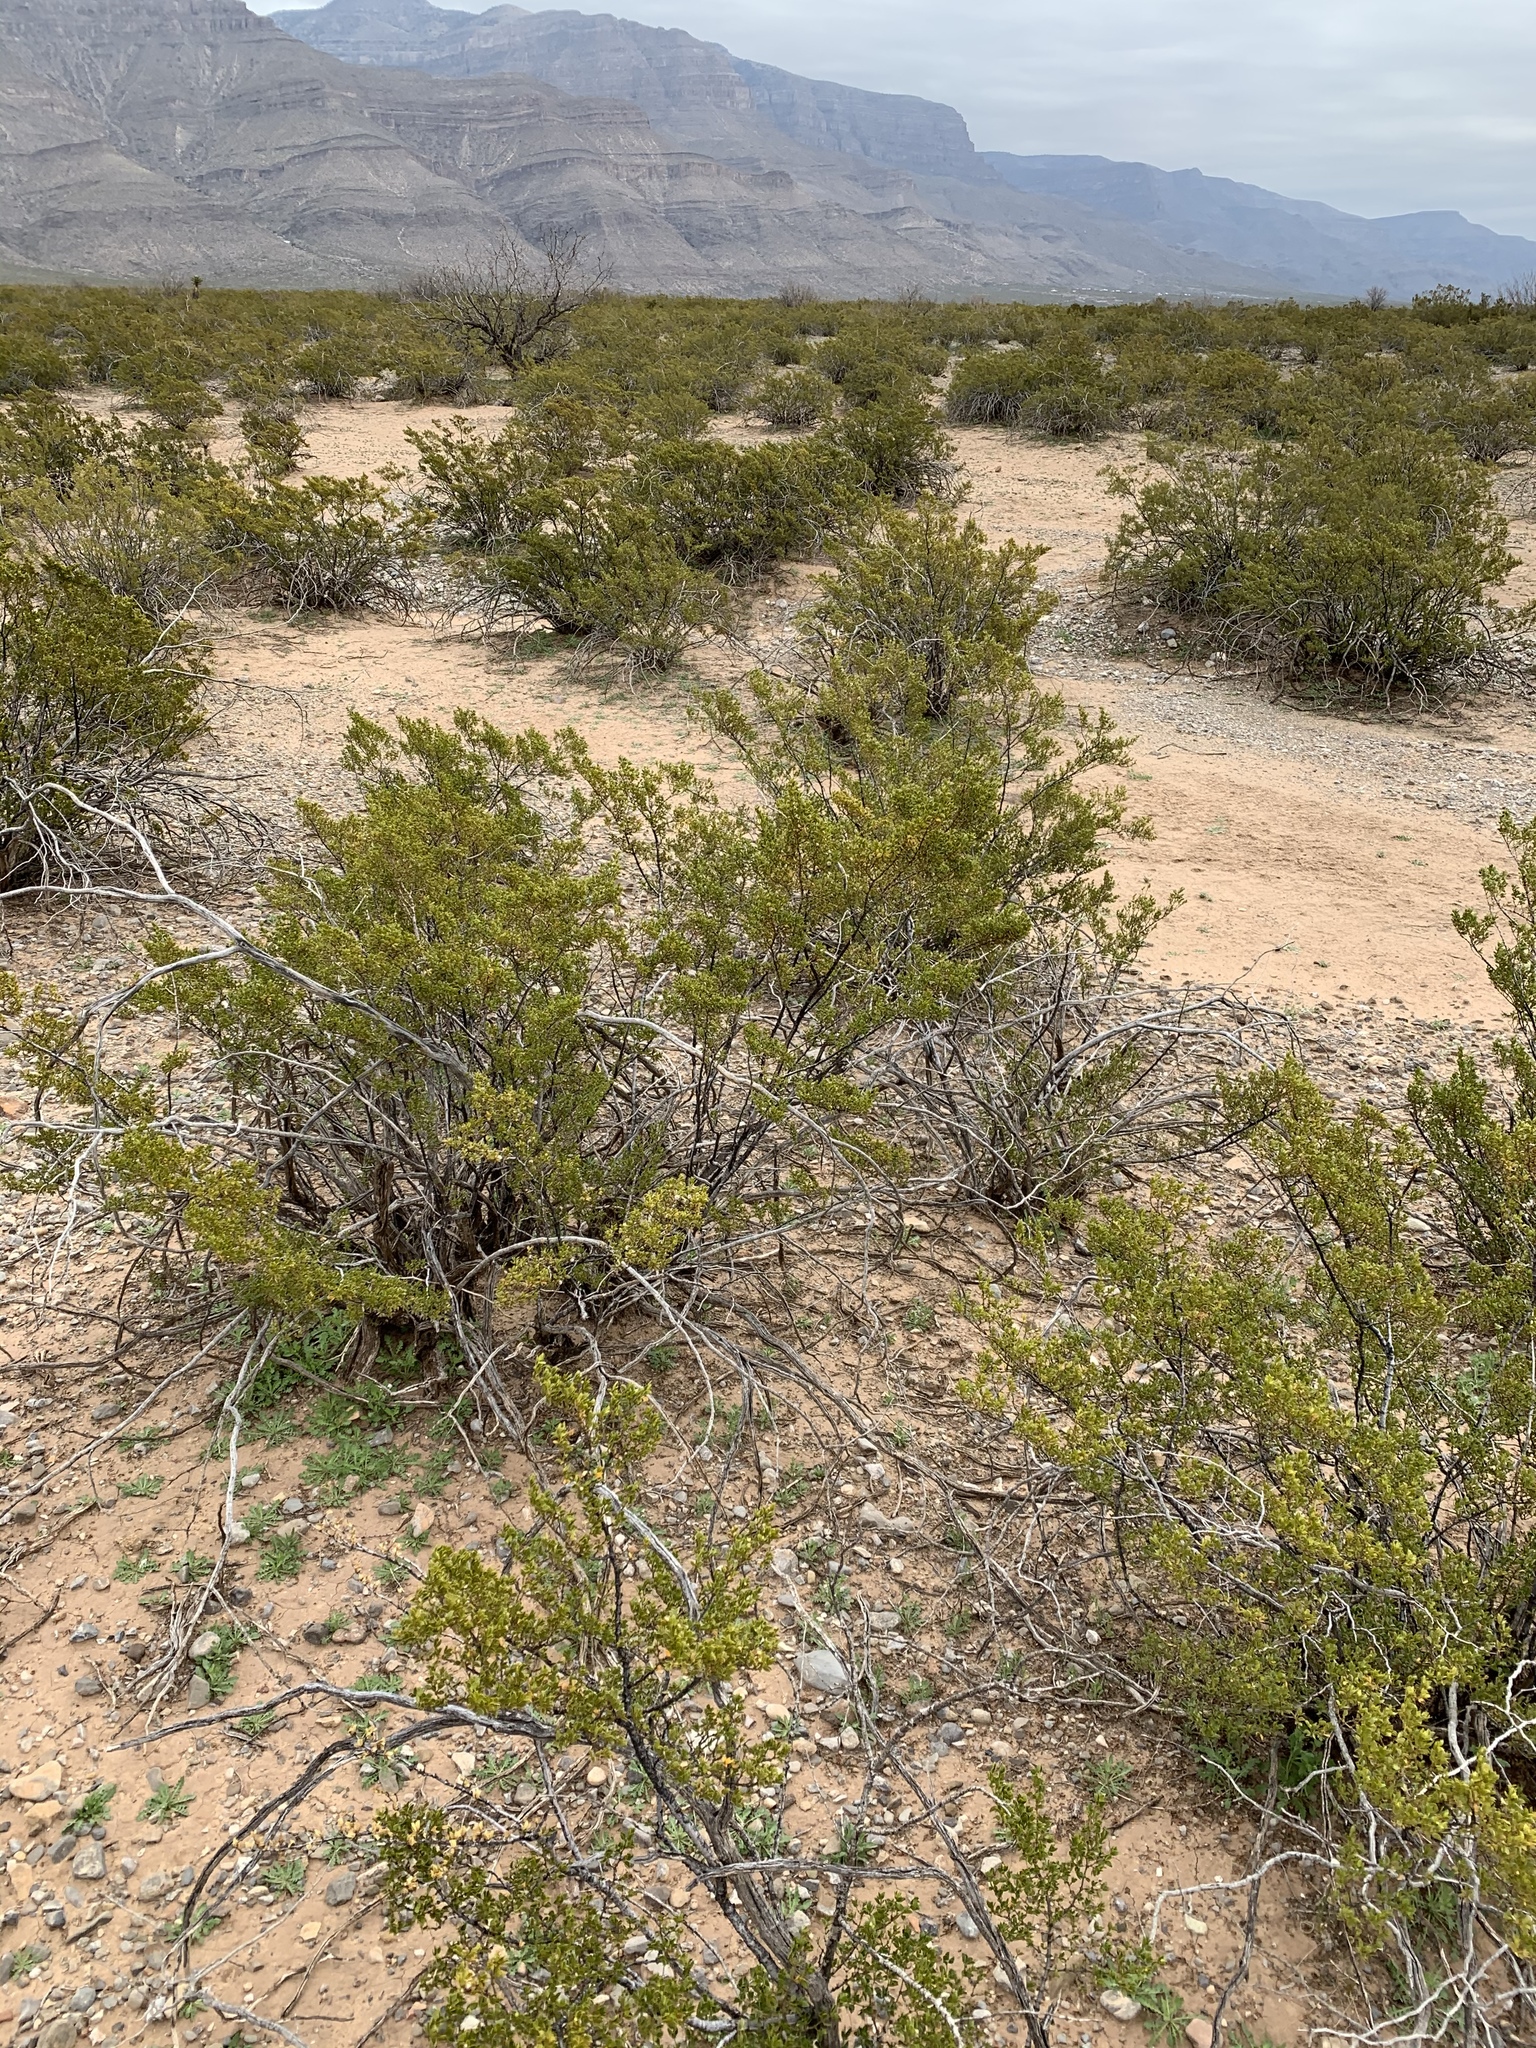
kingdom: Plantae
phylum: Tracheophyta
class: Magnoliopsida
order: Zygophyllales
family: Zygophyllaceae
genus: Larrea
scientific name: Larrea tridentata
